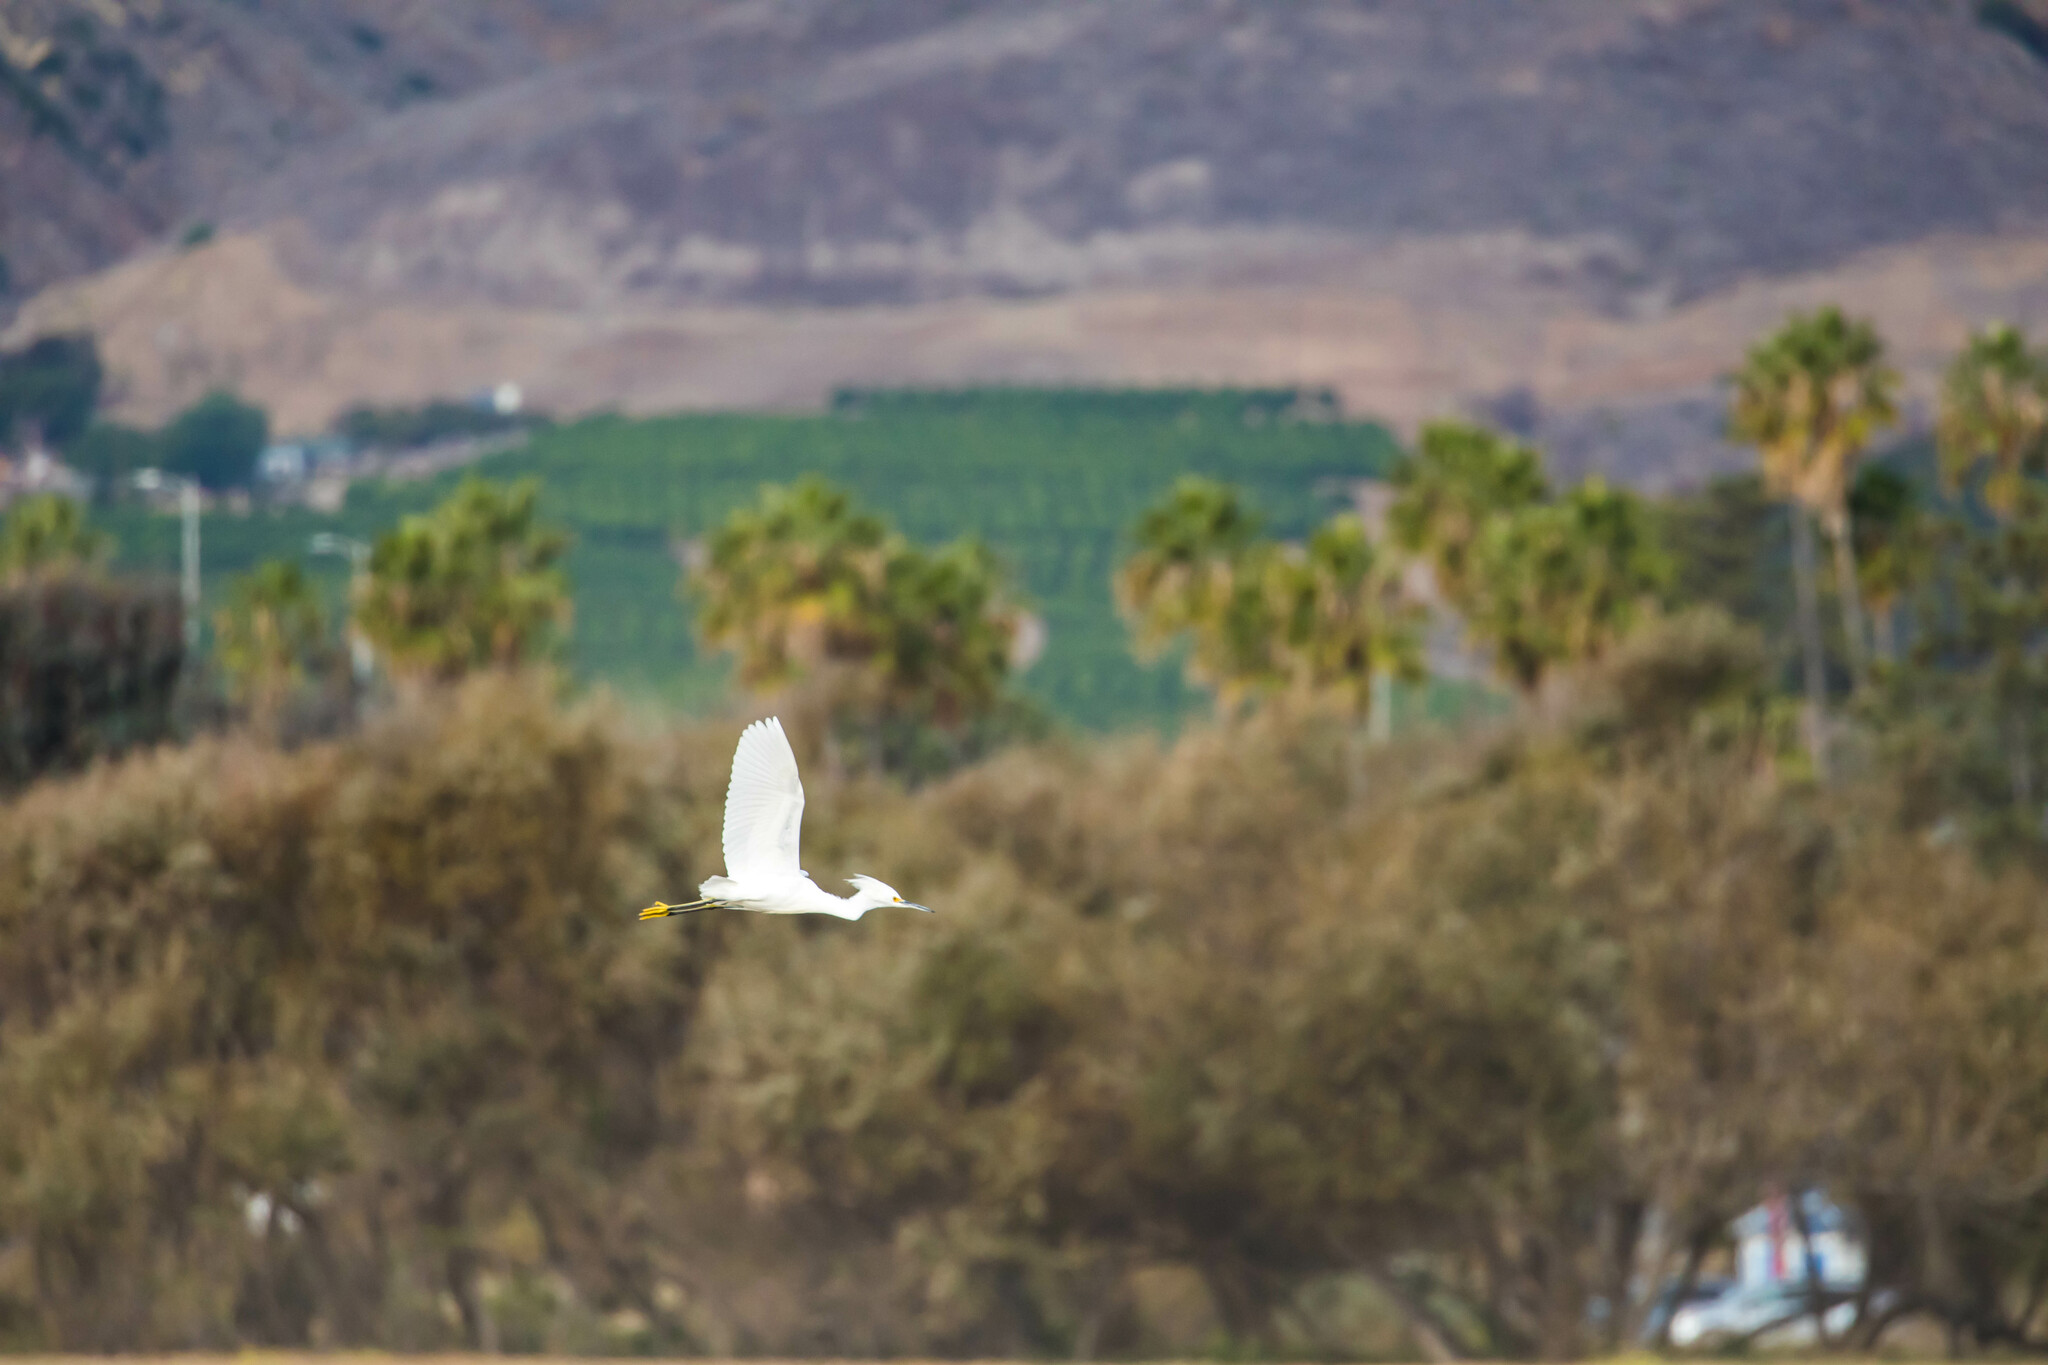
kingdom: Animalia
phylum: Chordata
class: Aves
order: Pelecaniformes
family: Ardeidae
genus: Egretta
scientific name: Egretta thula
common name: Snowy egret
